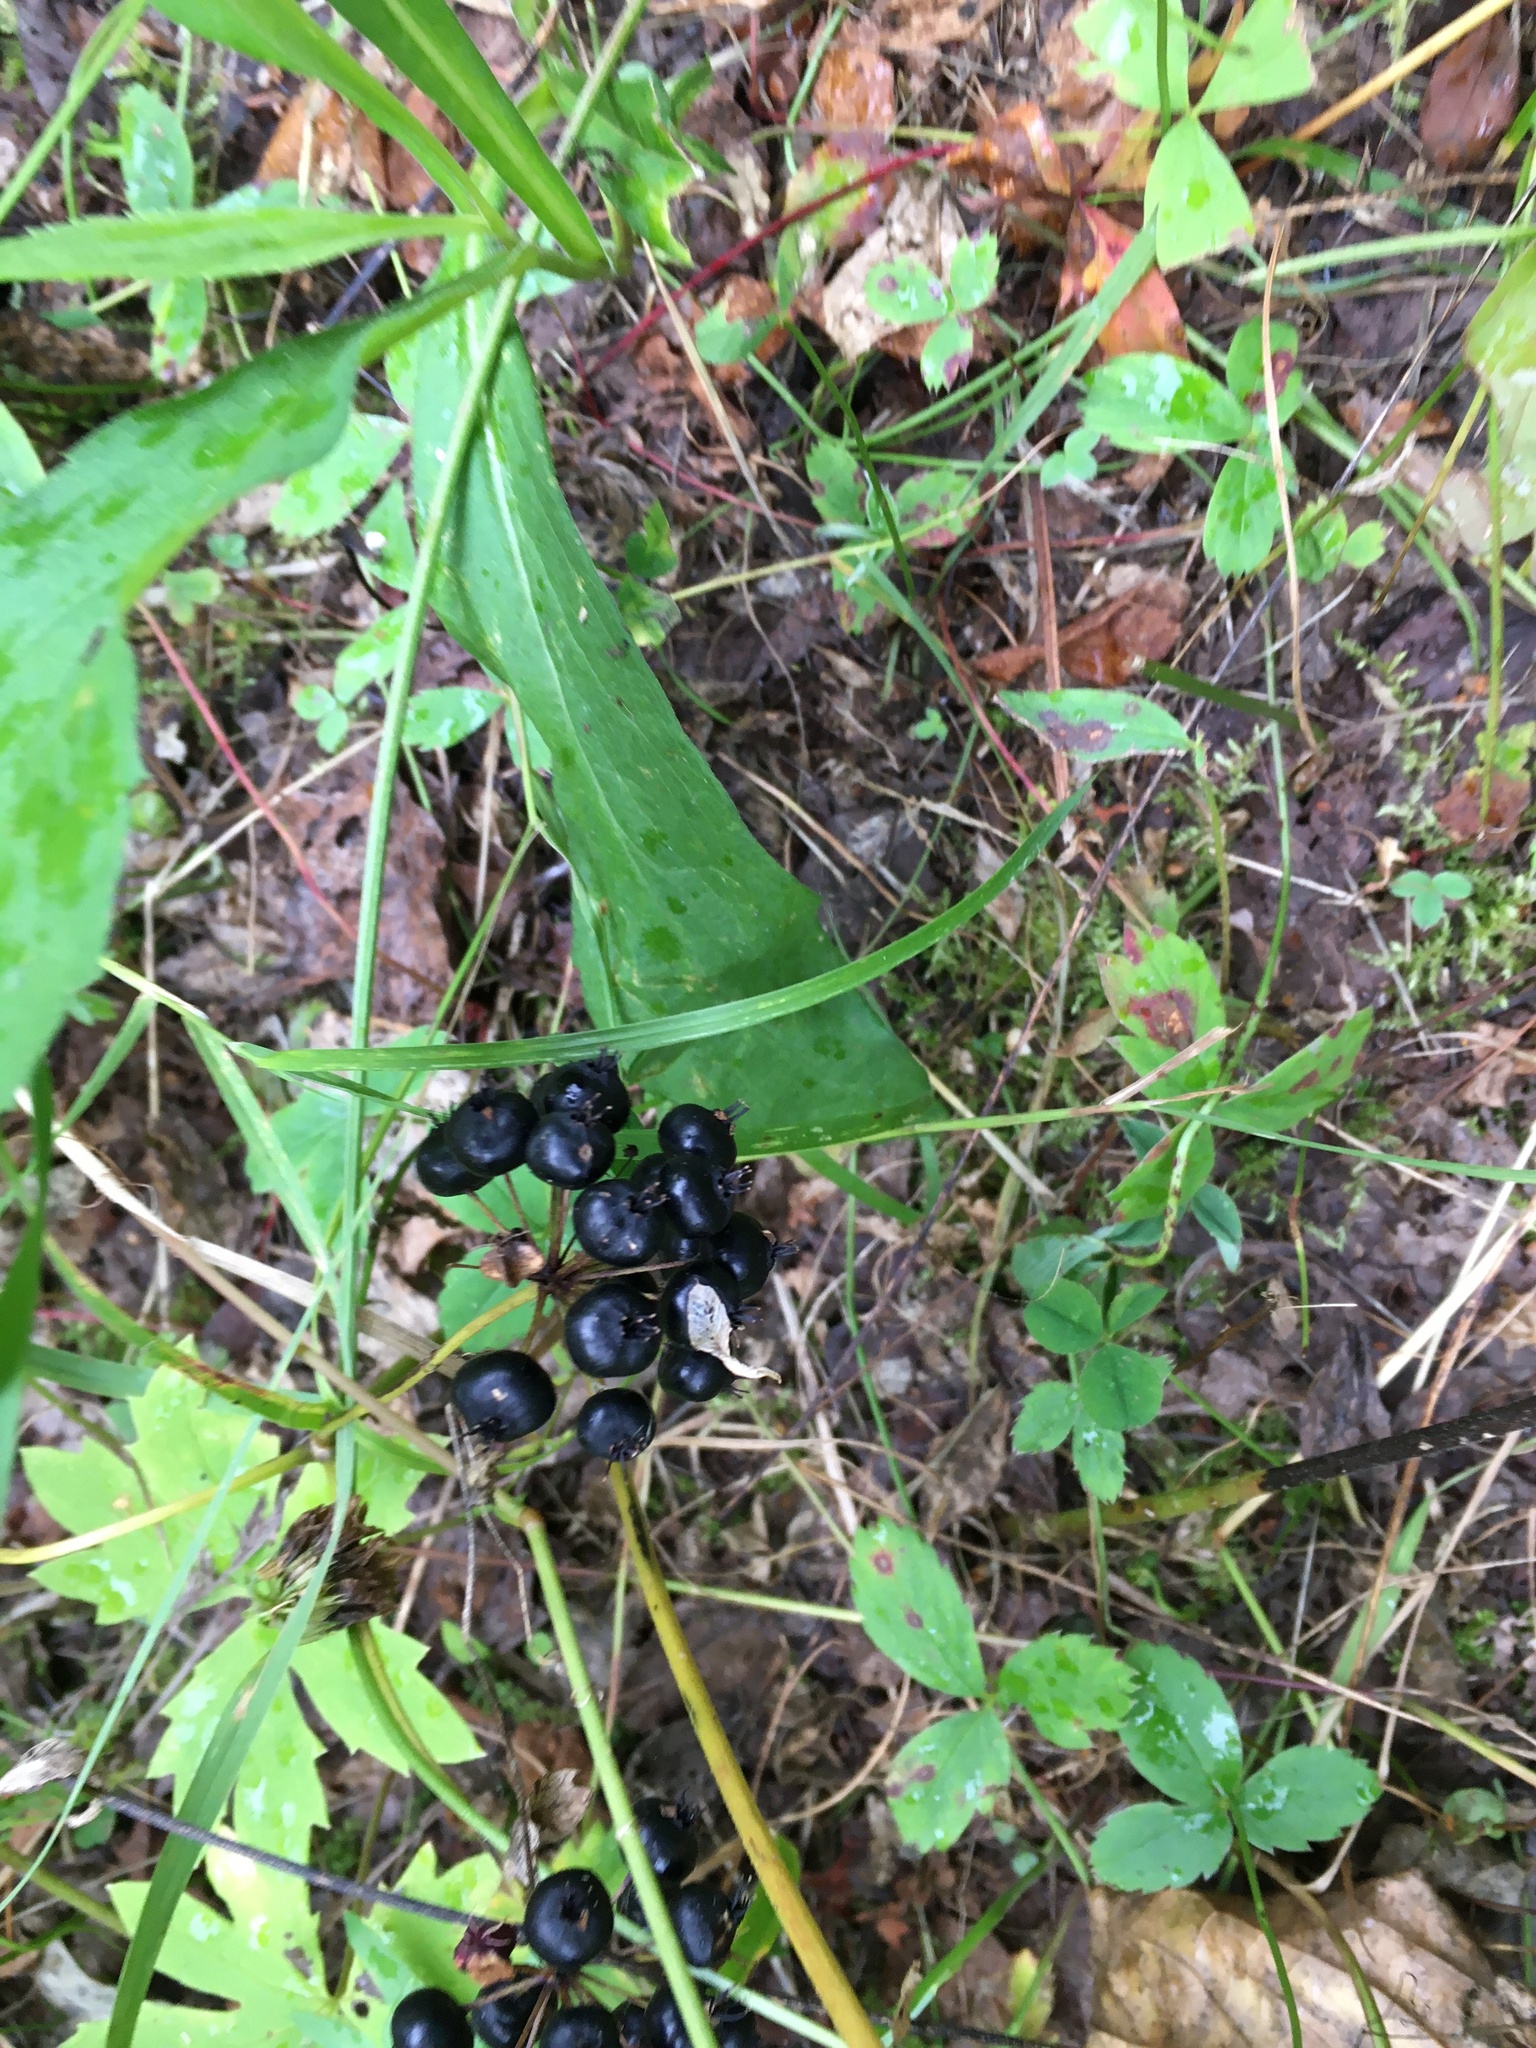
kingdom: Plantae
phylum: Tracheophyta
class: Magnoliopsida
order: Apiales
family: Araliaceae
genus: Aralia
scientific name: Aralia nudicaulis
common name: Wild sarsaparilla
